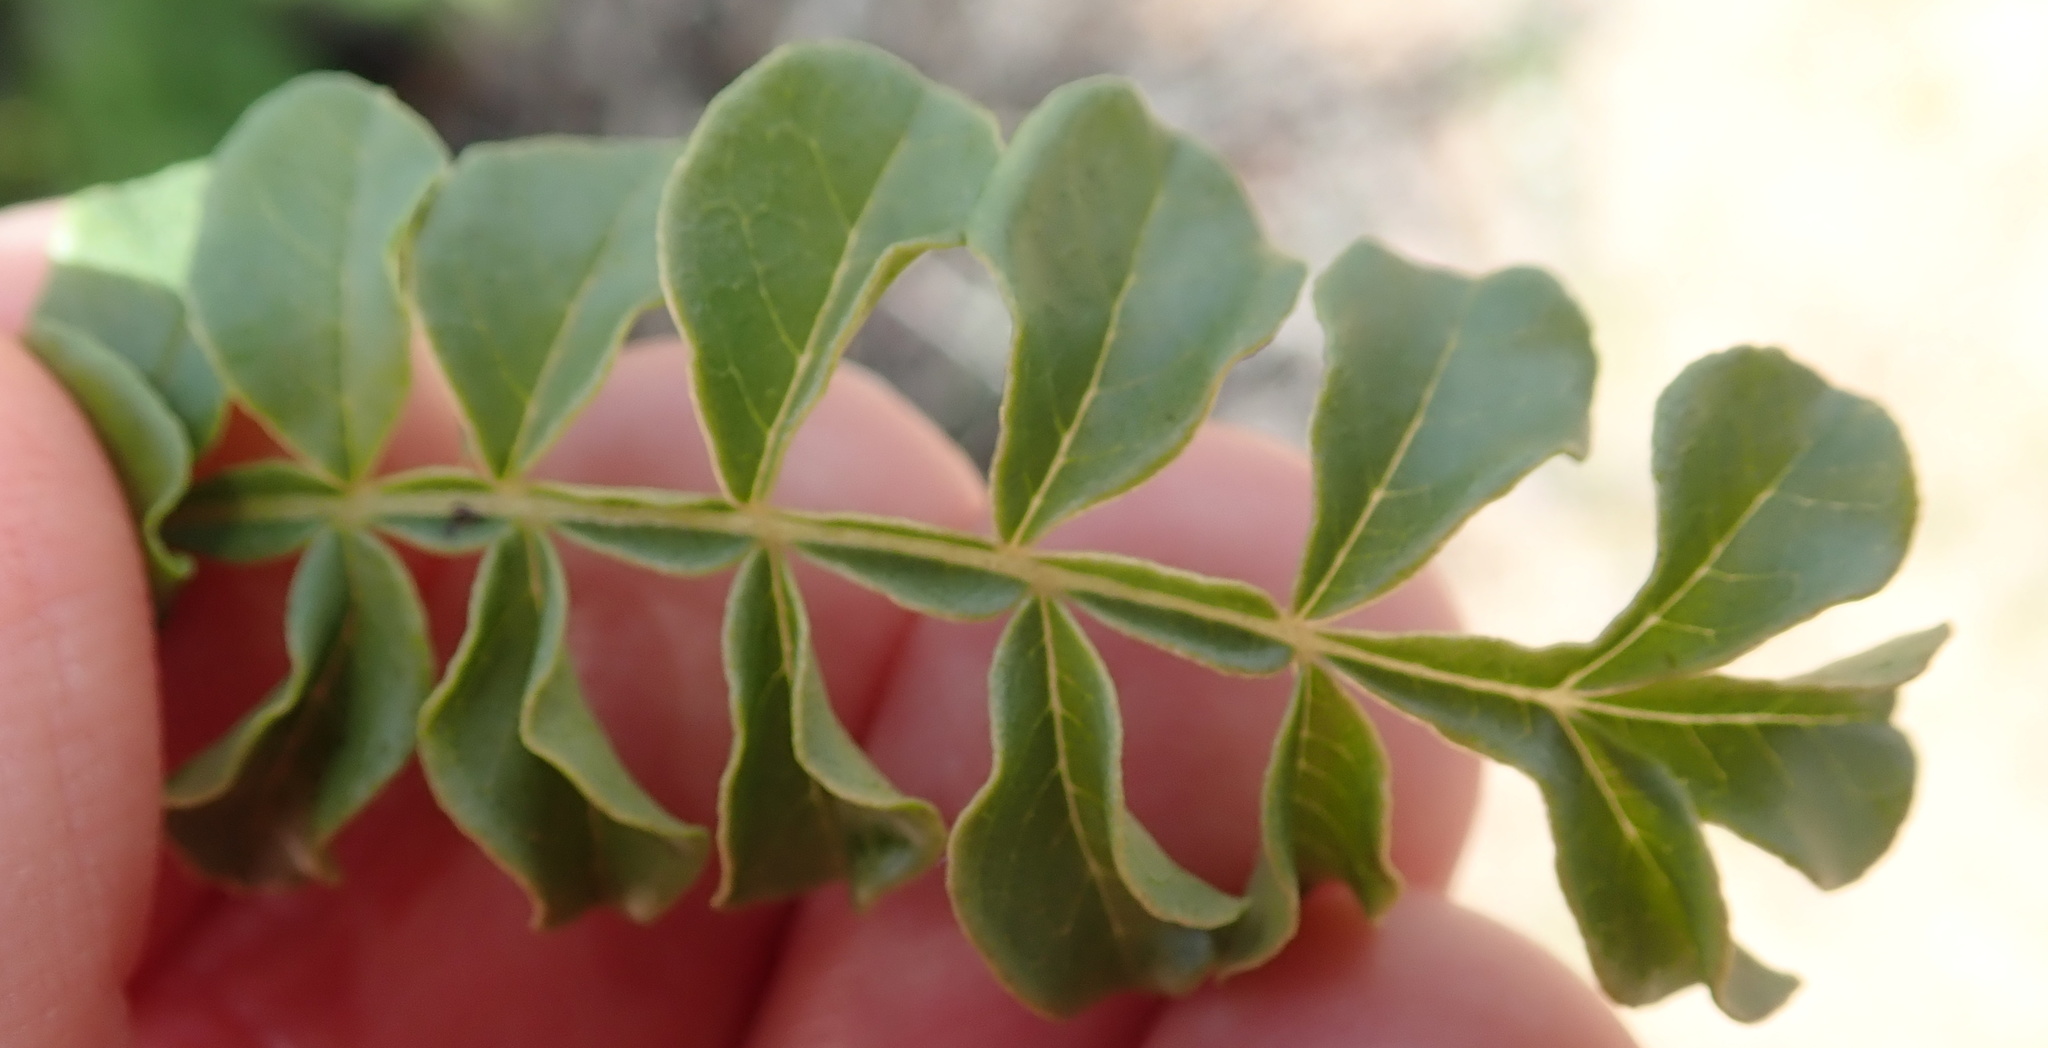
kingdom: Plantae
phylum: Tracheophyta
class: Magnoliopsida
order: Sapindales
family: Sapindaceae
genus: Erythrophysa
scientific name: Erythrophysa alata
